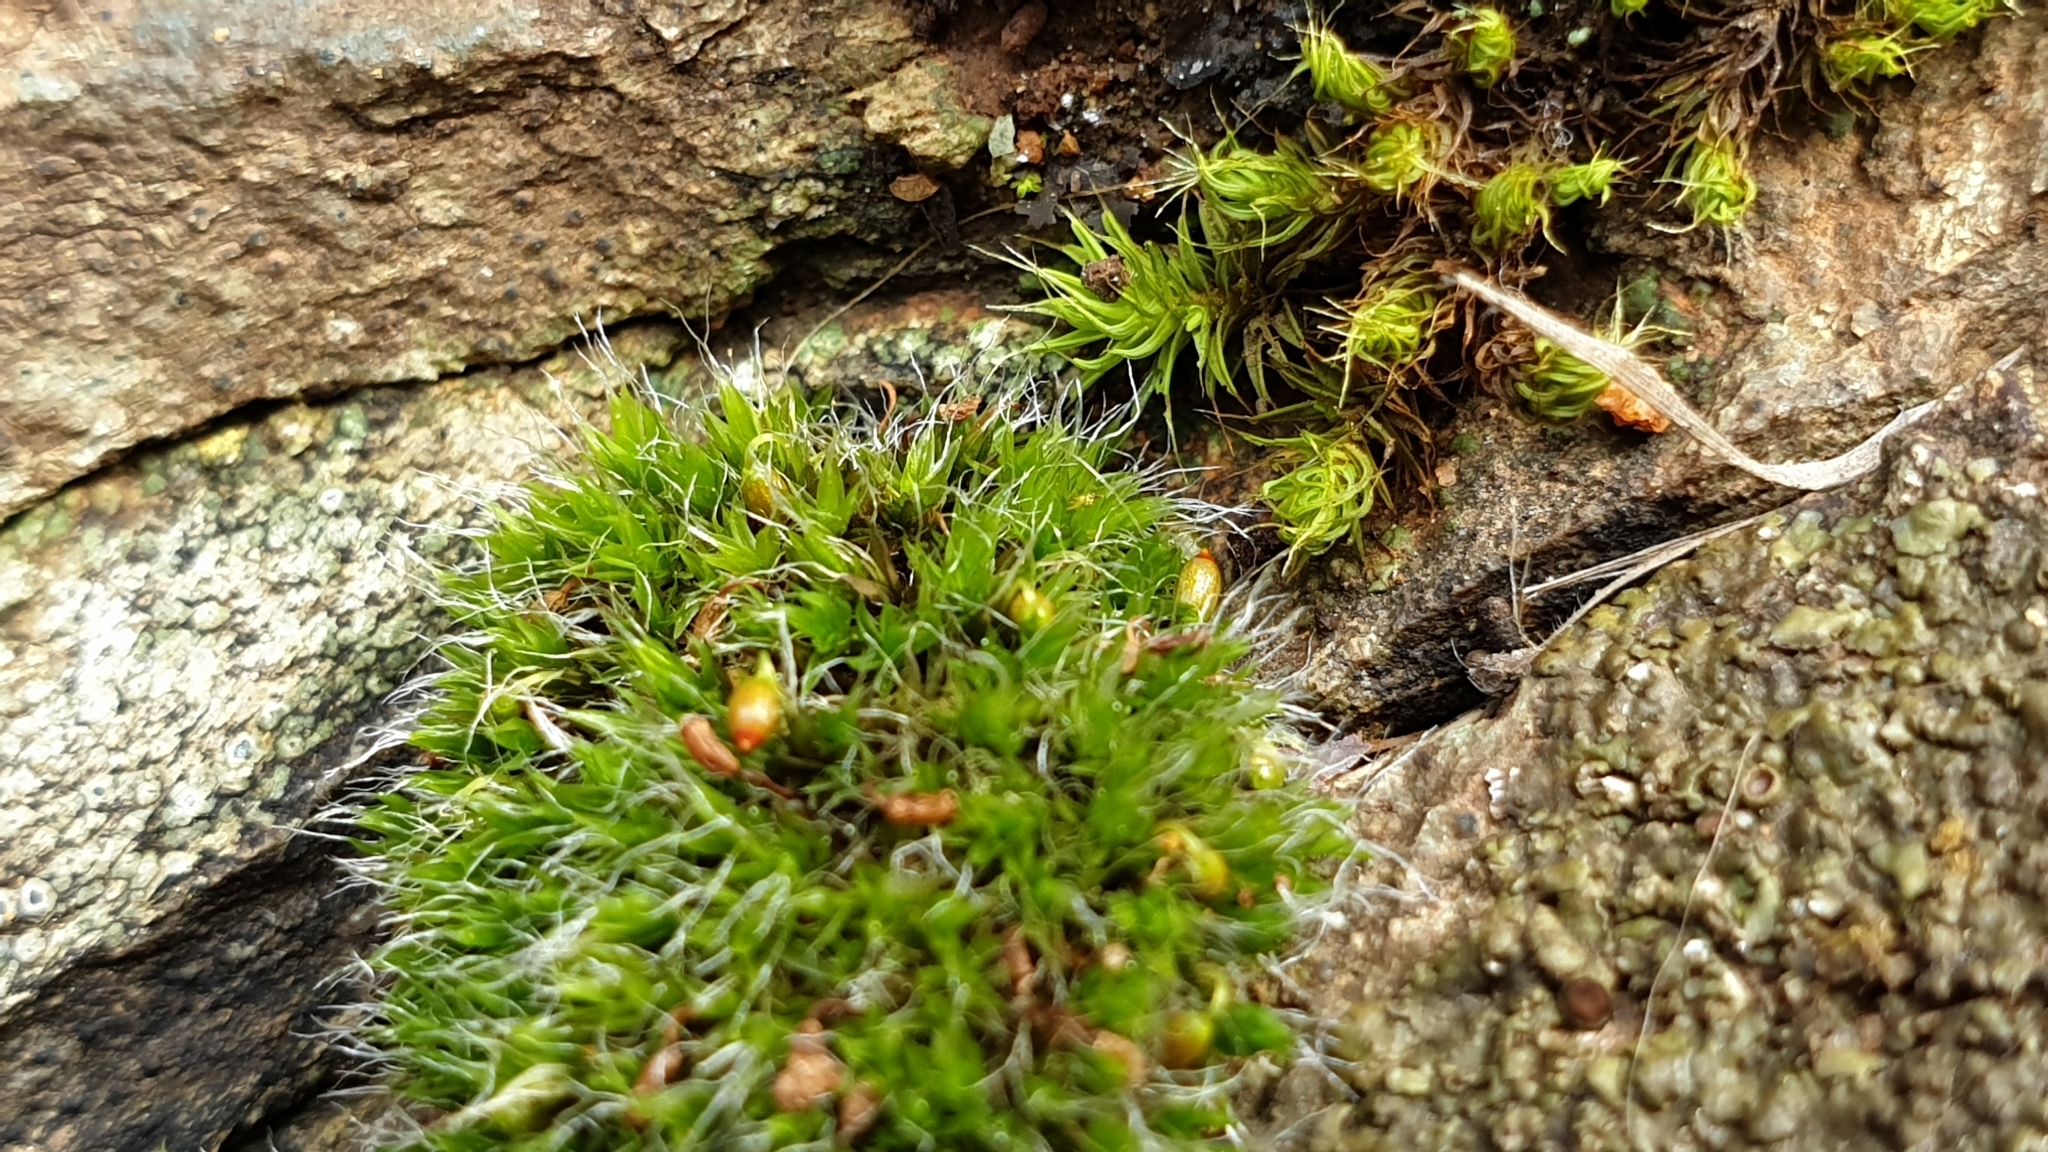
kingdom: Plantae
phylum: Bryophyta
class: Bryopsida
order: Grimmiales
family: Grimmiaceae
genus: Grimmia
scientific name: Grimmia pulvinata
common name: Grey-cushioned grimmia
